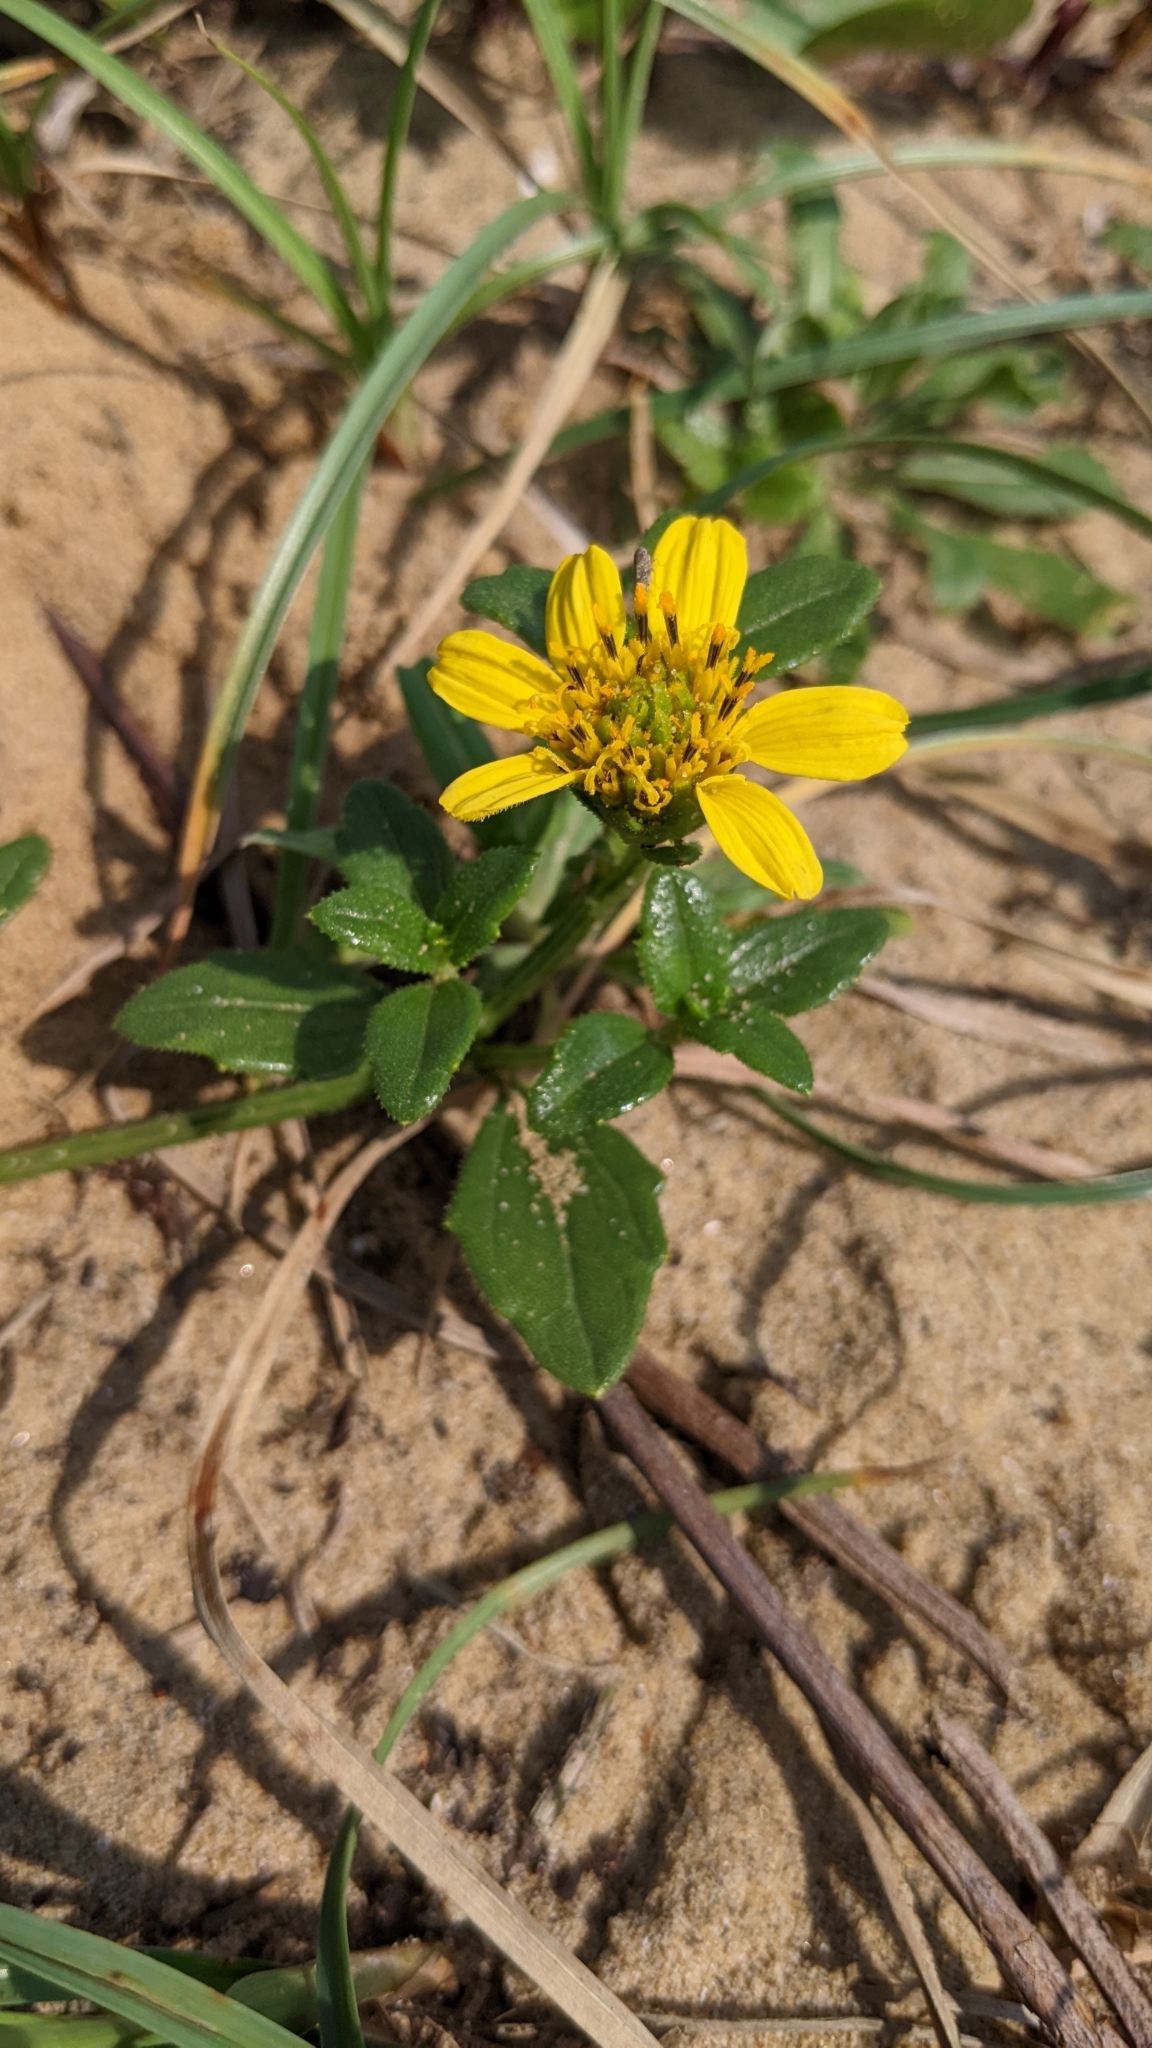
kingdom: Plantae
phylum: Tracheophyta
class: Magnoliopsida
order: Asterales
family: Asteraceae
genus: Melanthera
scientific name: Melanthera prostrata
